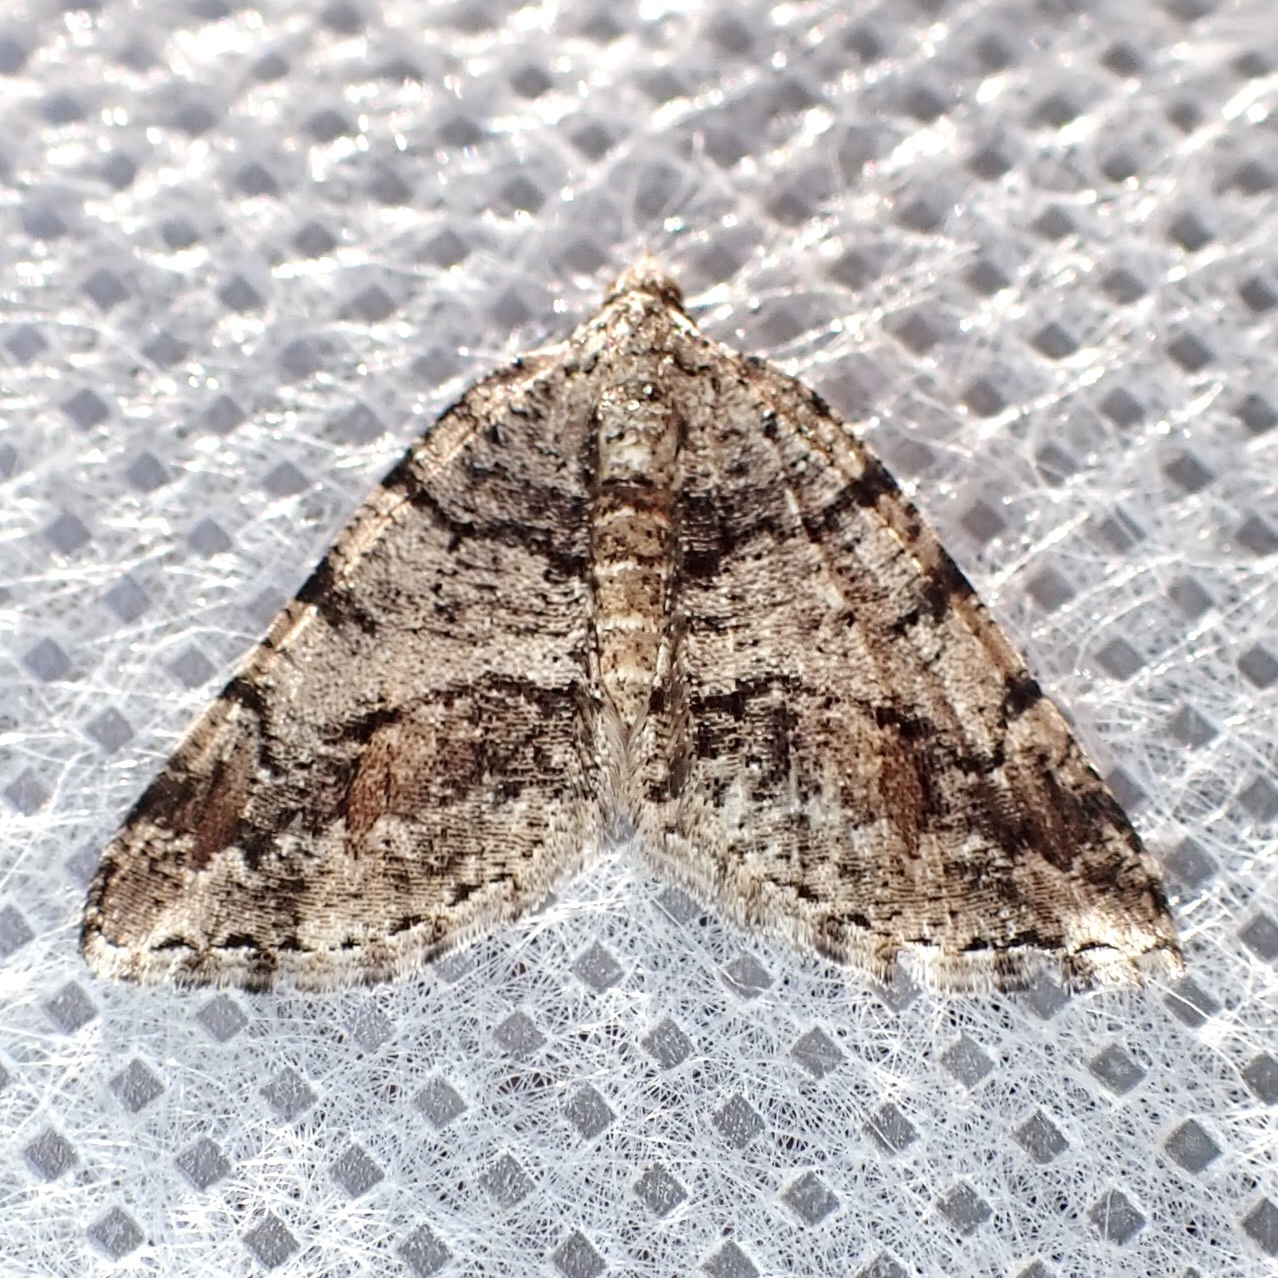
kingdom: Animalia
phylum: Arthropoda
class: Insecta
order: Lepidoptera
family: Geometridae
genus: Macaria
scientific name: Macaria deceptrix
